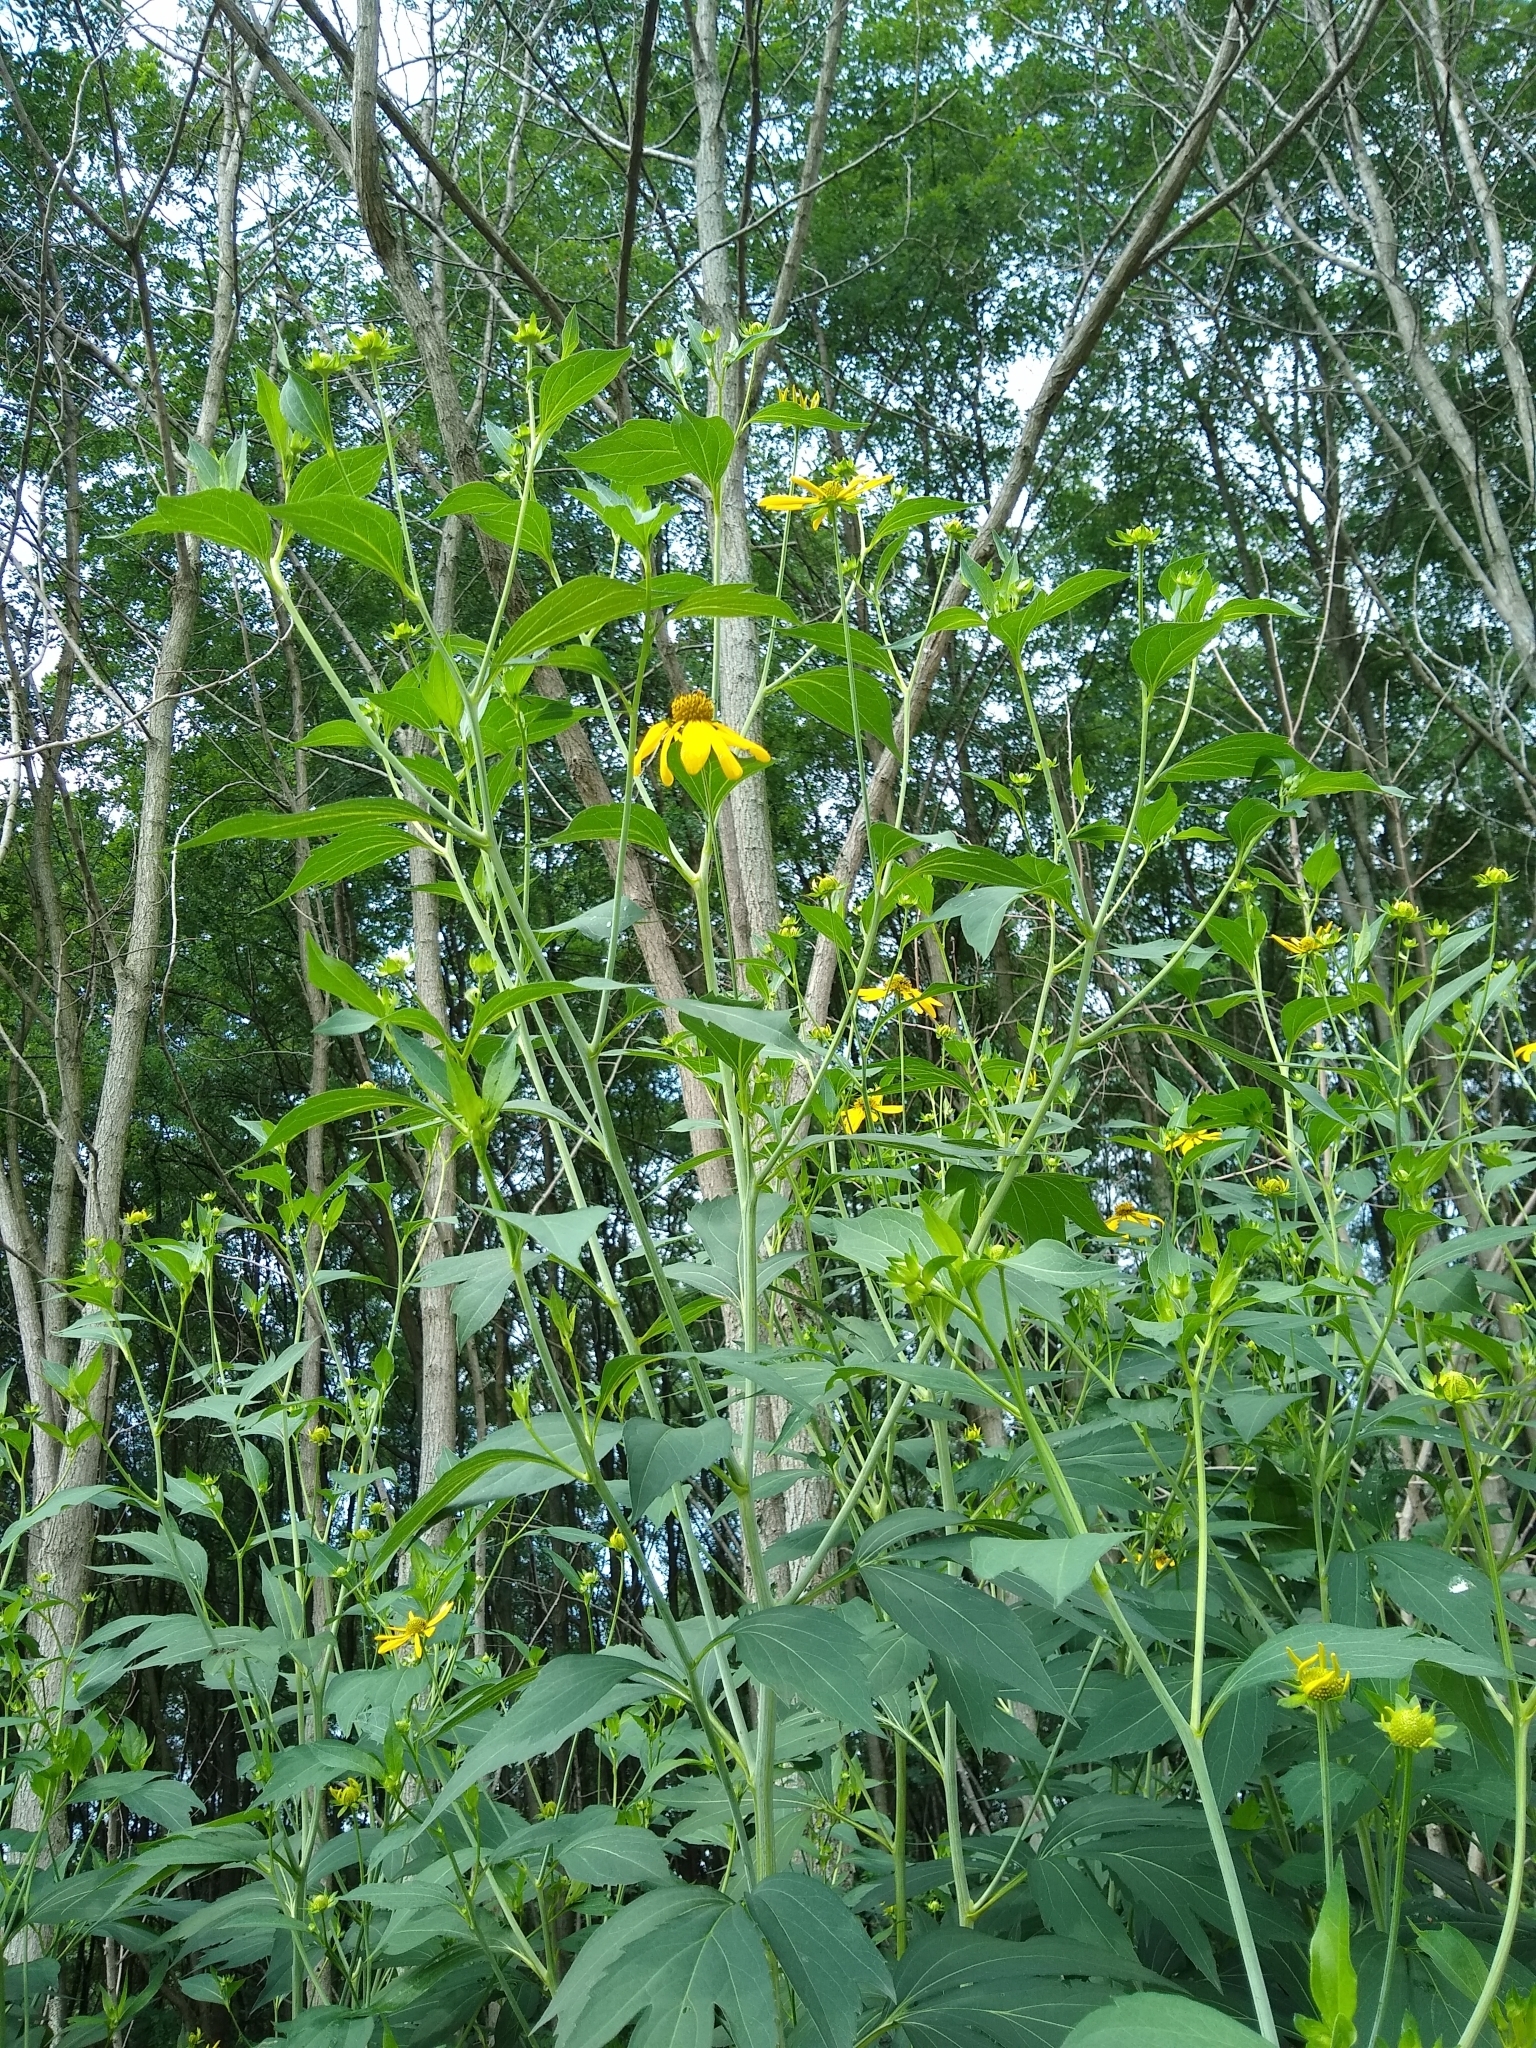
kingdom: Plantae
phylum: Tracheophyta
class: Magnoliopsida
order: Asterales
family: Asteraceae
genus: Rudbeckia
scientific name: Rudbeckia laciniata
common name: Coneflower
